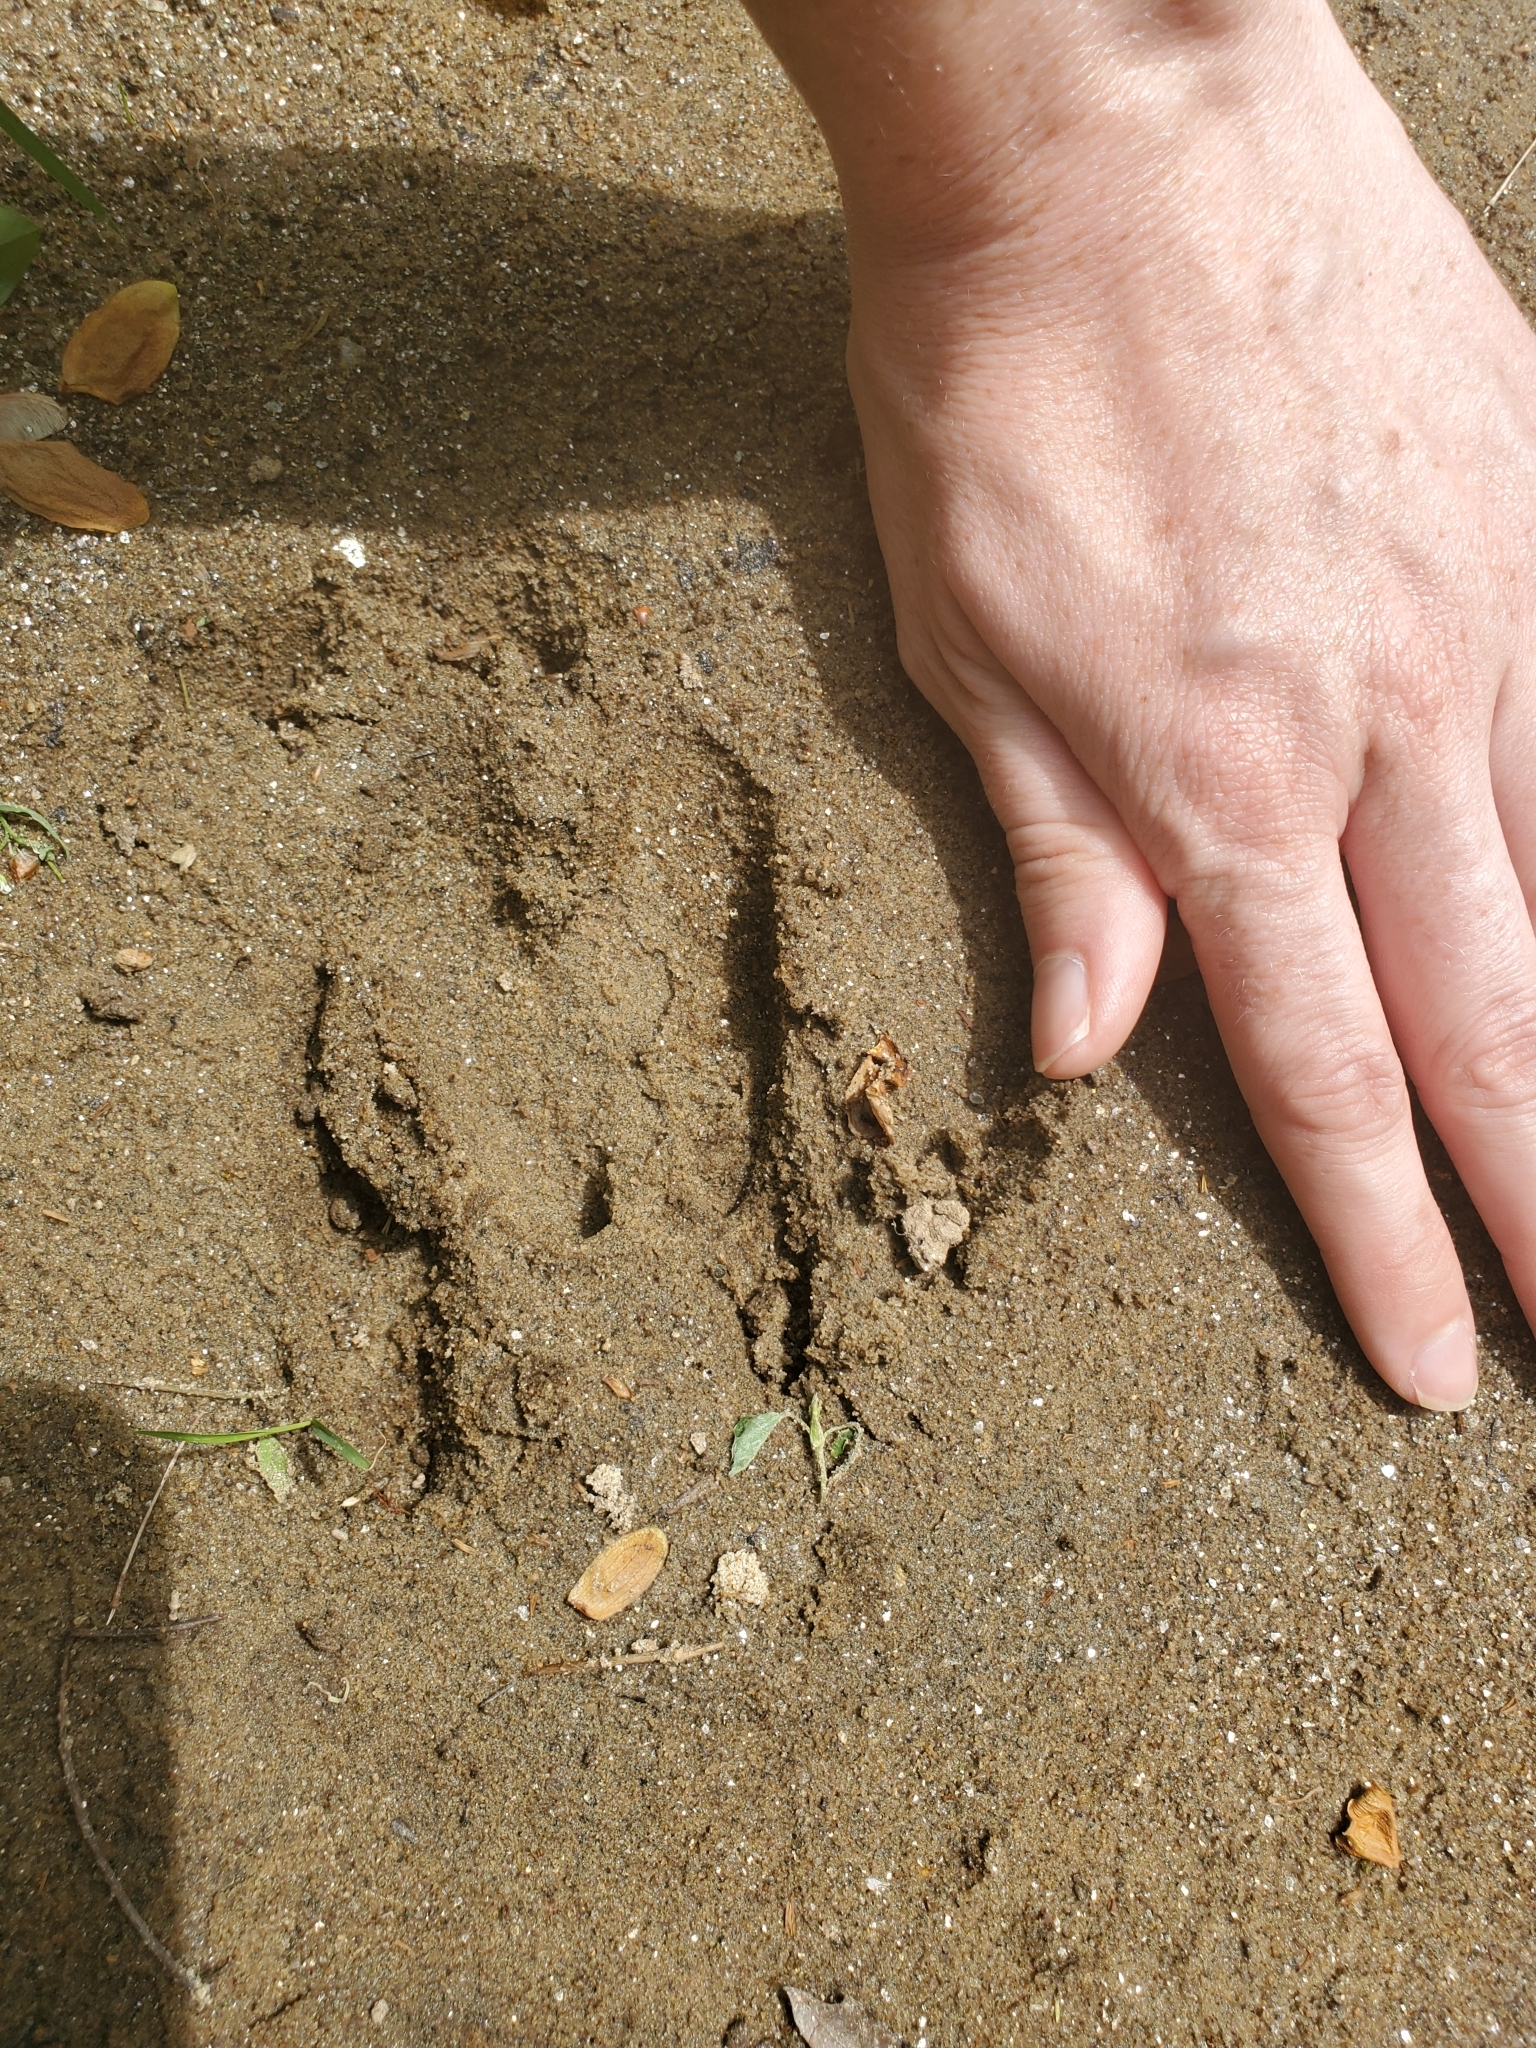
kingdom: Animalia
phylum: Chordata
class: Mammalia
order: Artiodactyla
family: Cervidae
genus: Odocoileus
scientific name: Odocoileus virginianus
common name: White-tailed deer
